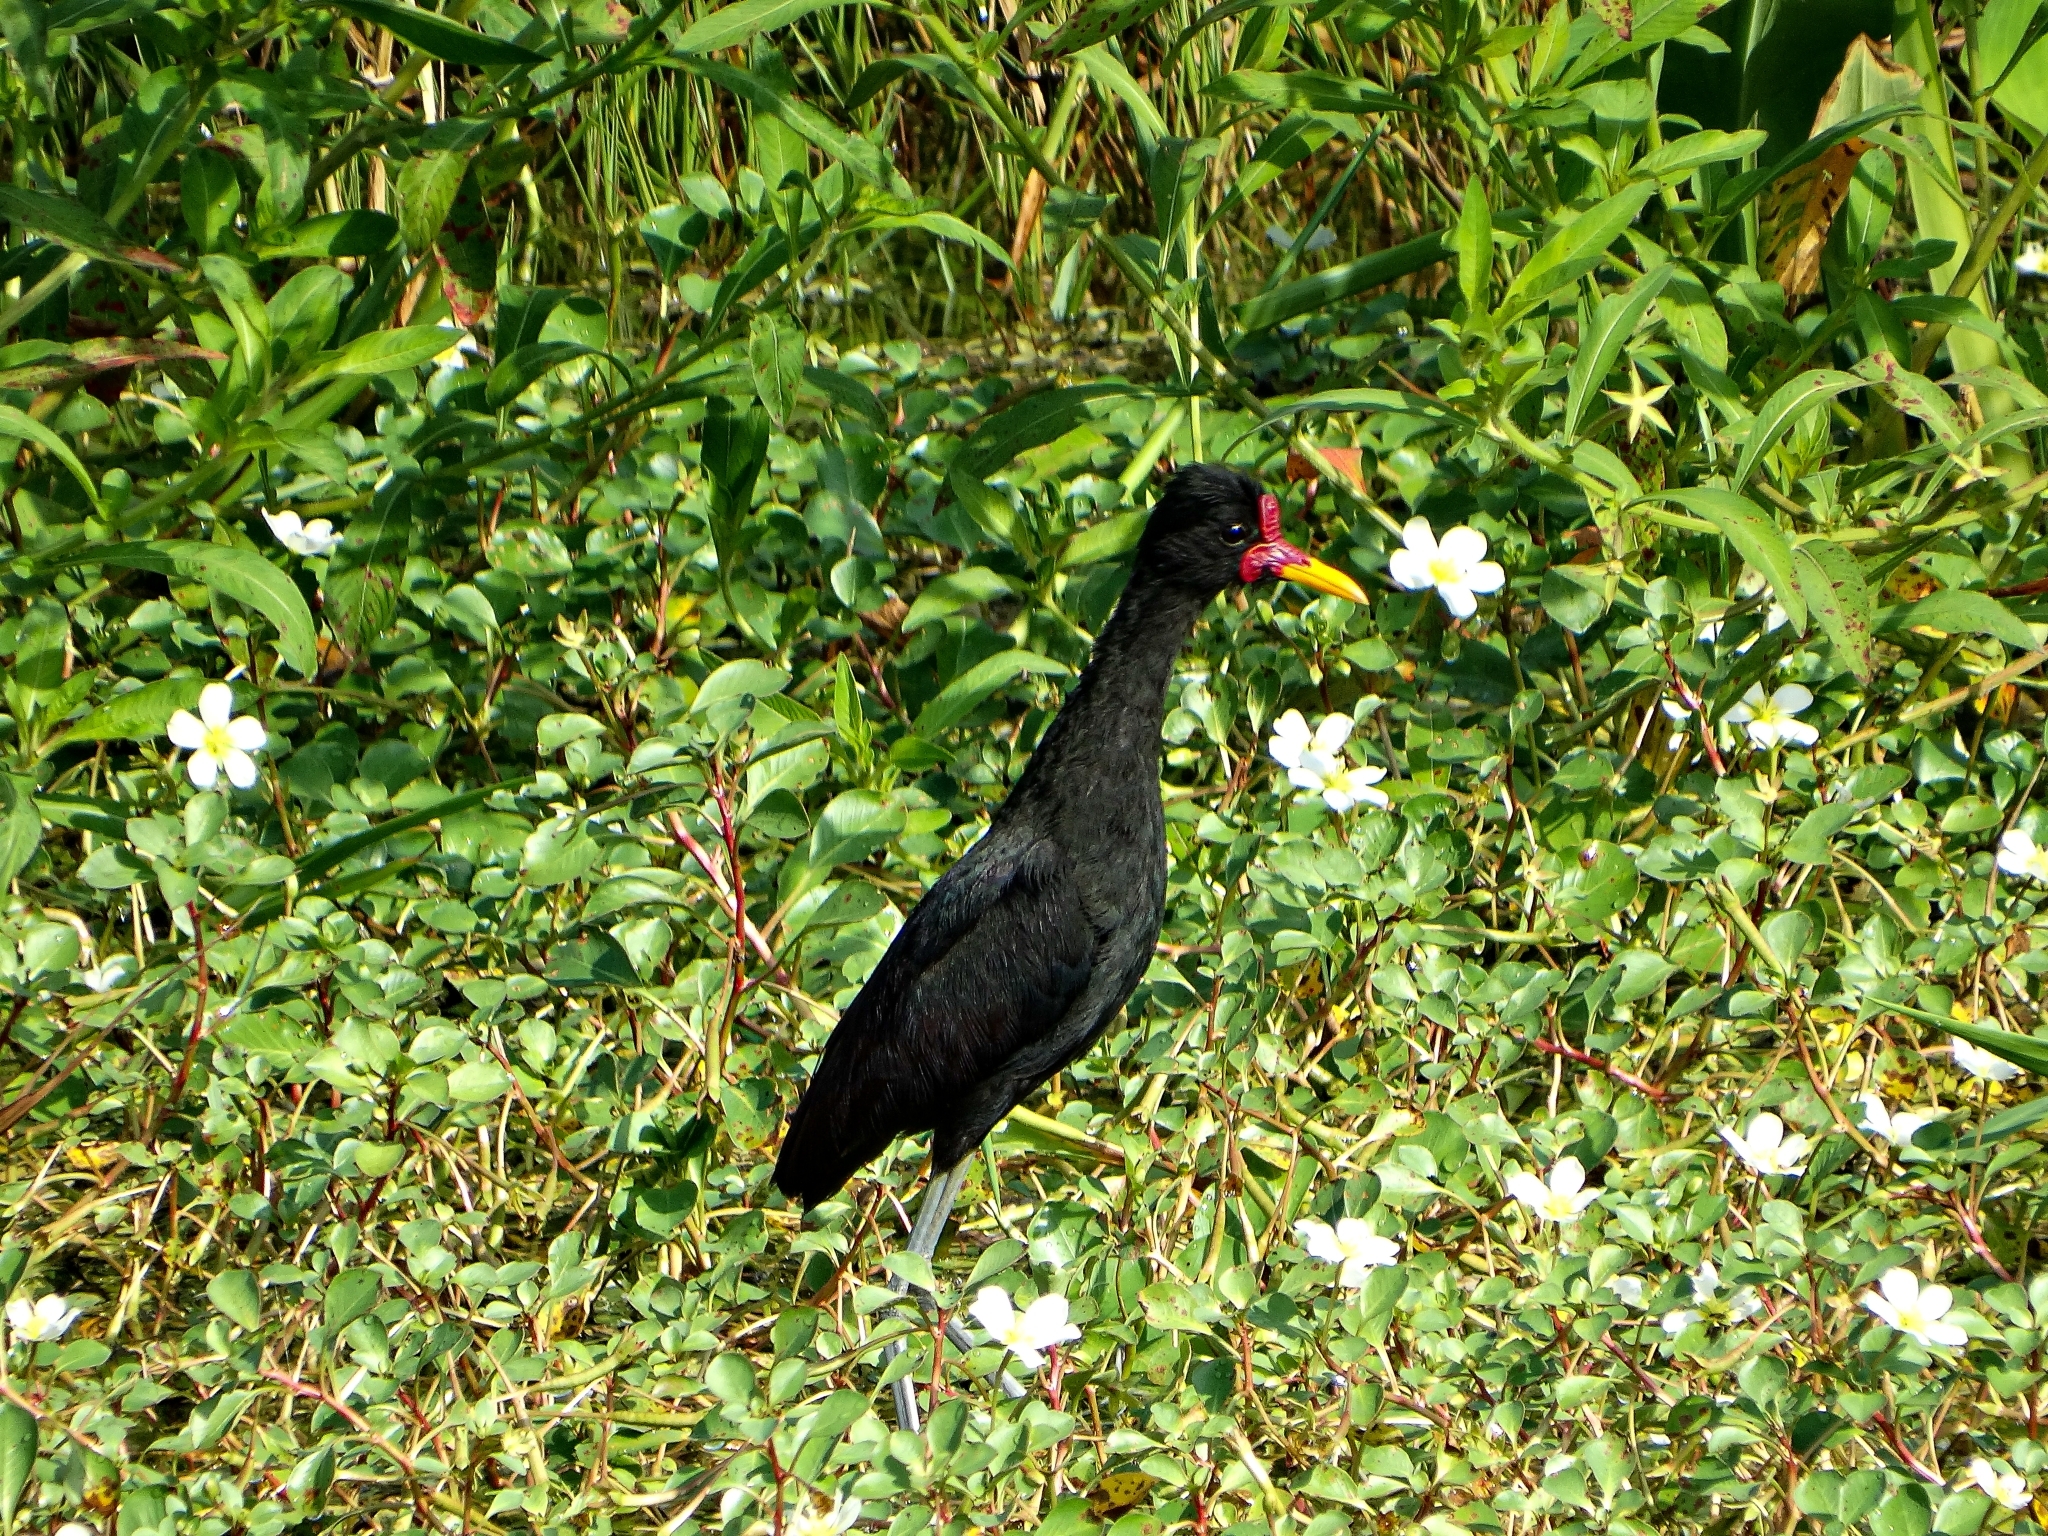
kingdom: Animalia
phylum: Chordata
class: Aves
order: Charadriiformes
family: Jacanidae
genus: Jacana
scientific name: Jacana jacana
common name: Wattled jacana
